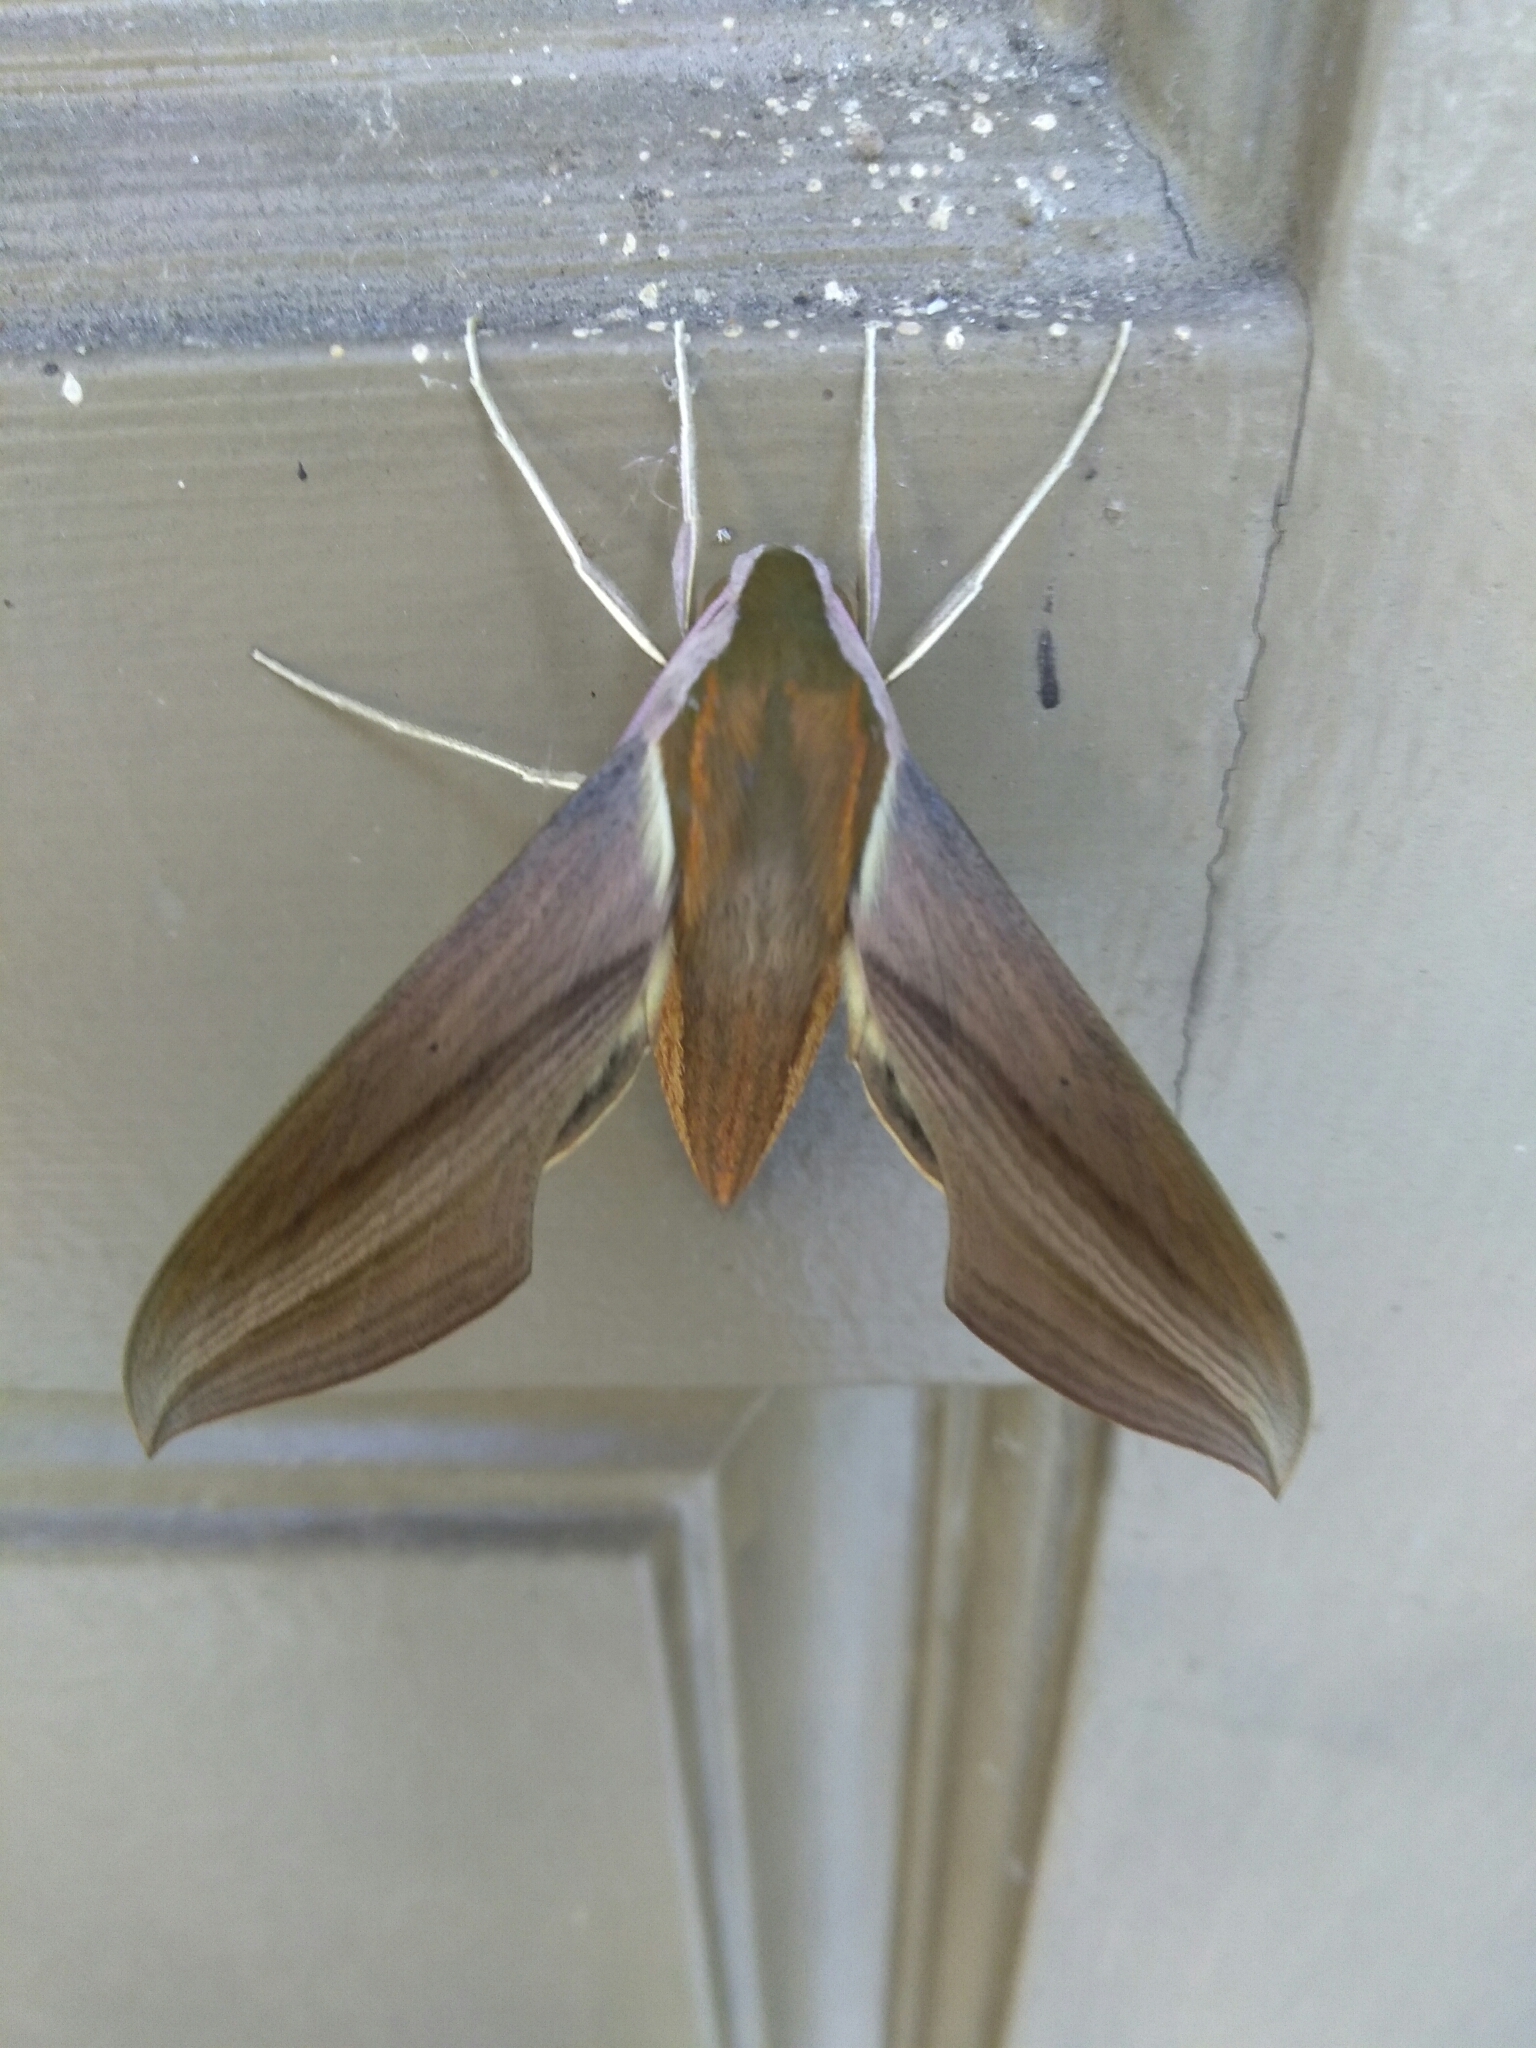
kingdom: Animalia
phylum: Arthropoda
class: Insecta
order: Lepidoptera
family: Sphingidae
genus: Xylophanes
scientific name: Xylophanes tersa
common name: Tersa sphinx
